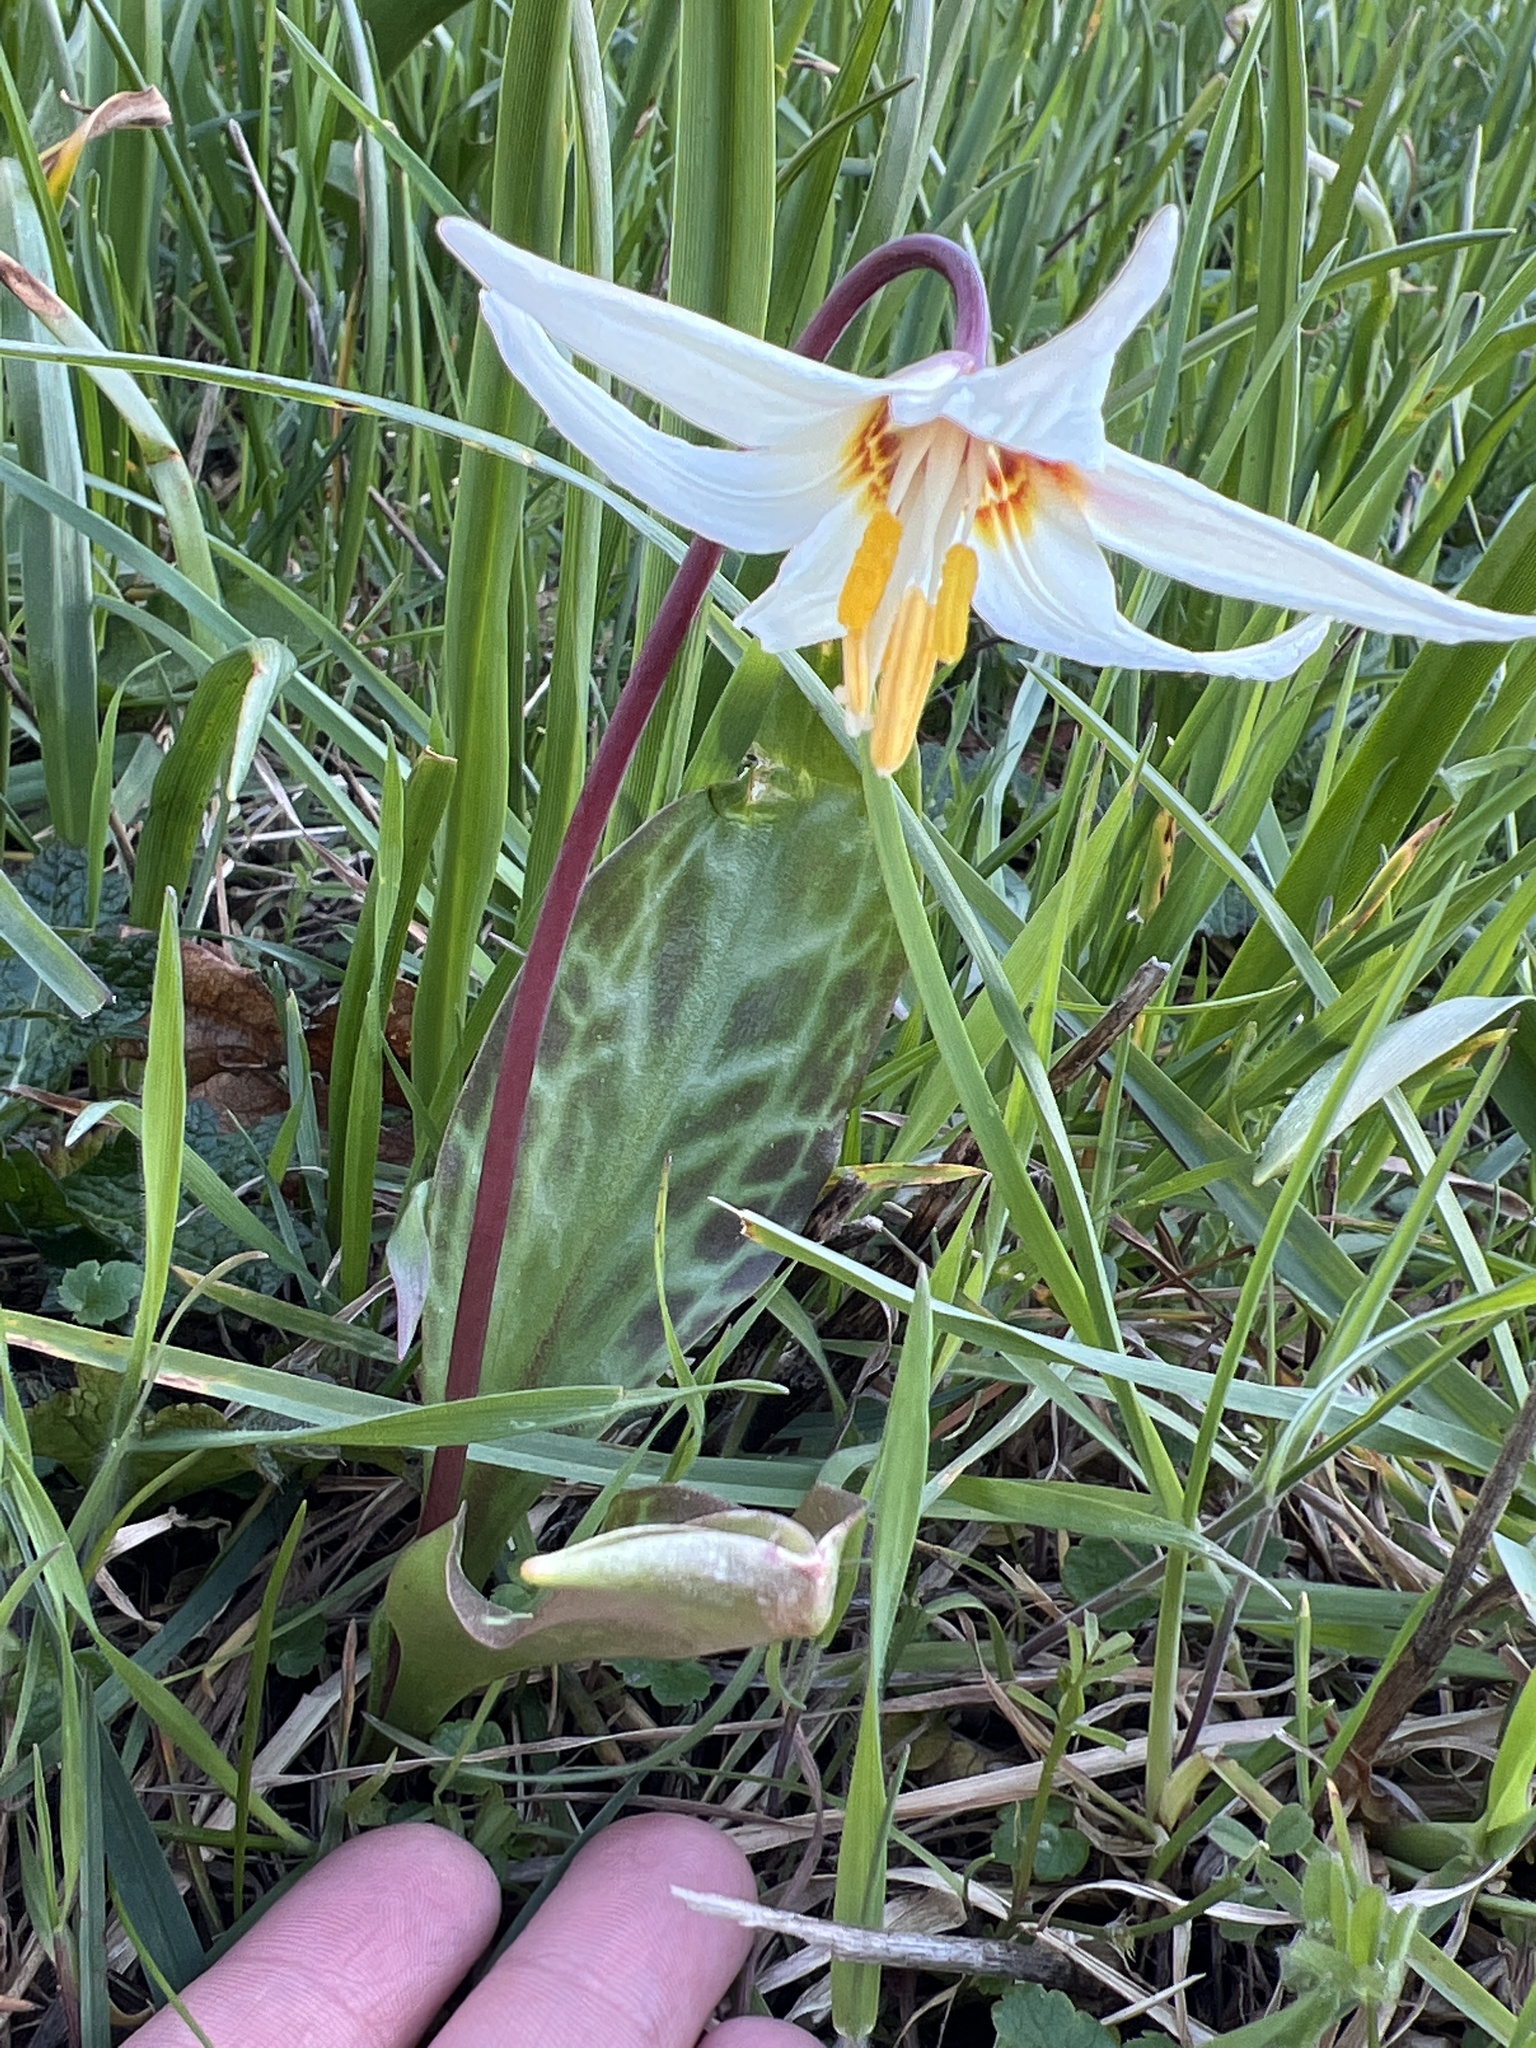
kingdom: Plantae
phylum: Tracheophyta
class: Liliopsida
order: Liliales
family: Liliaceae
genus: Erythronium
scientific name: Erythronium oregonum
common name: Giant adder's-tongue
